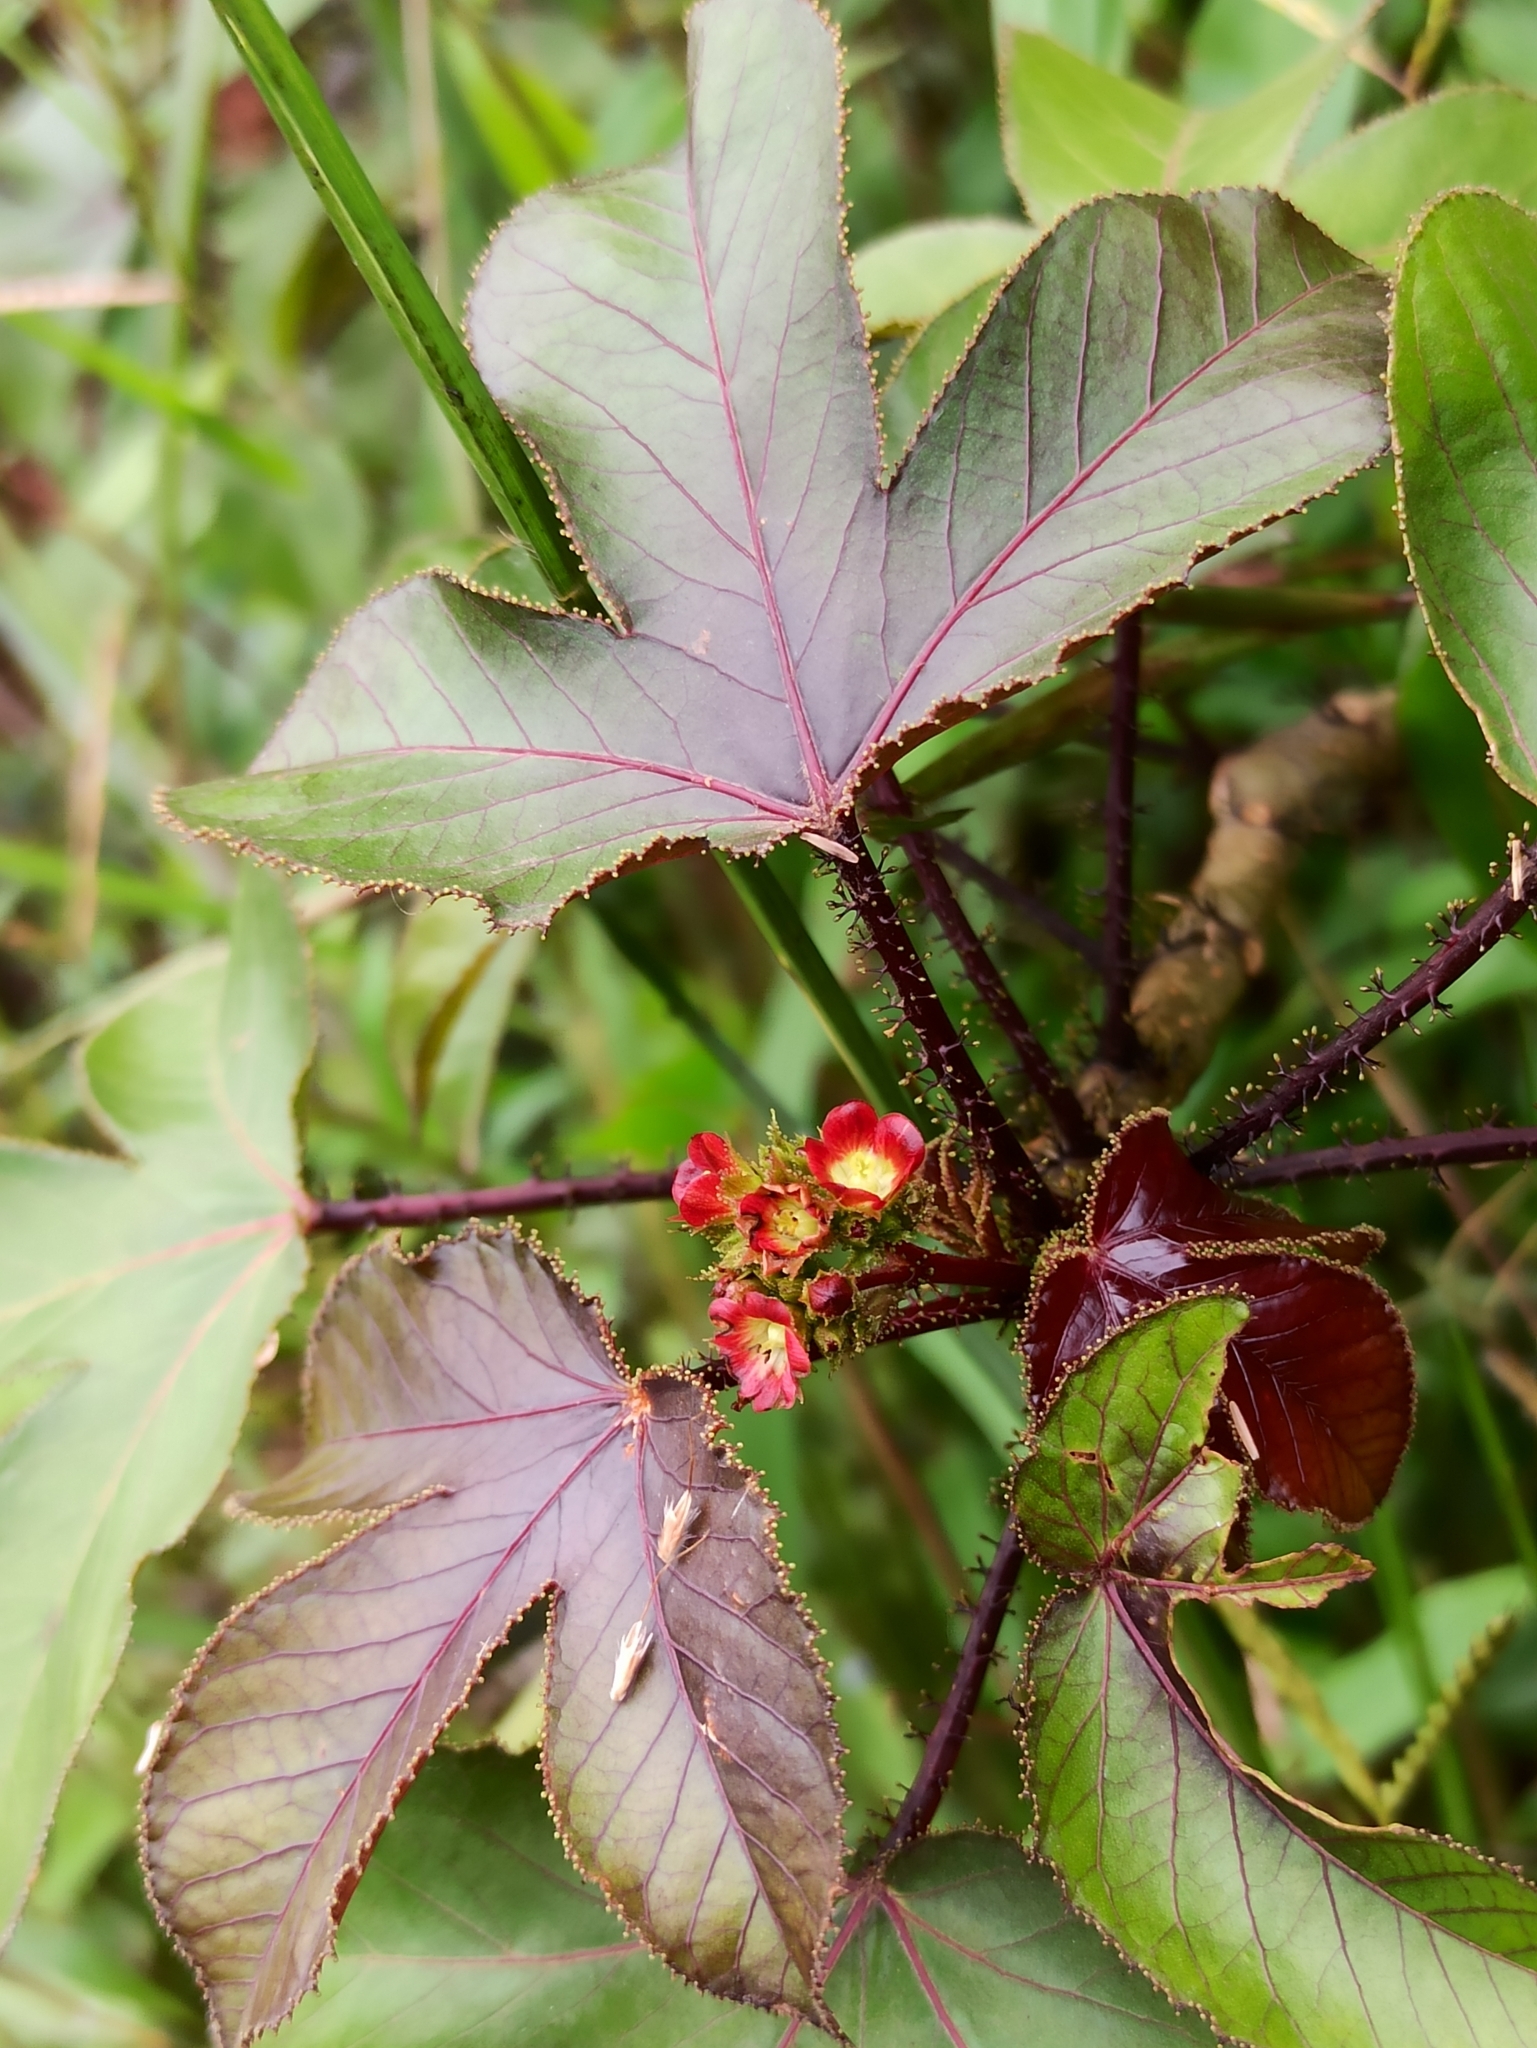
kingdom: Plantae
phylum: Tracheophyta
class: Magnoliopsida
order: Malpighiales
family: Euphorbiaceae
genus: Jatropha
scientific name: Jatropha gossypiifolia
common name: Bellyache bush
